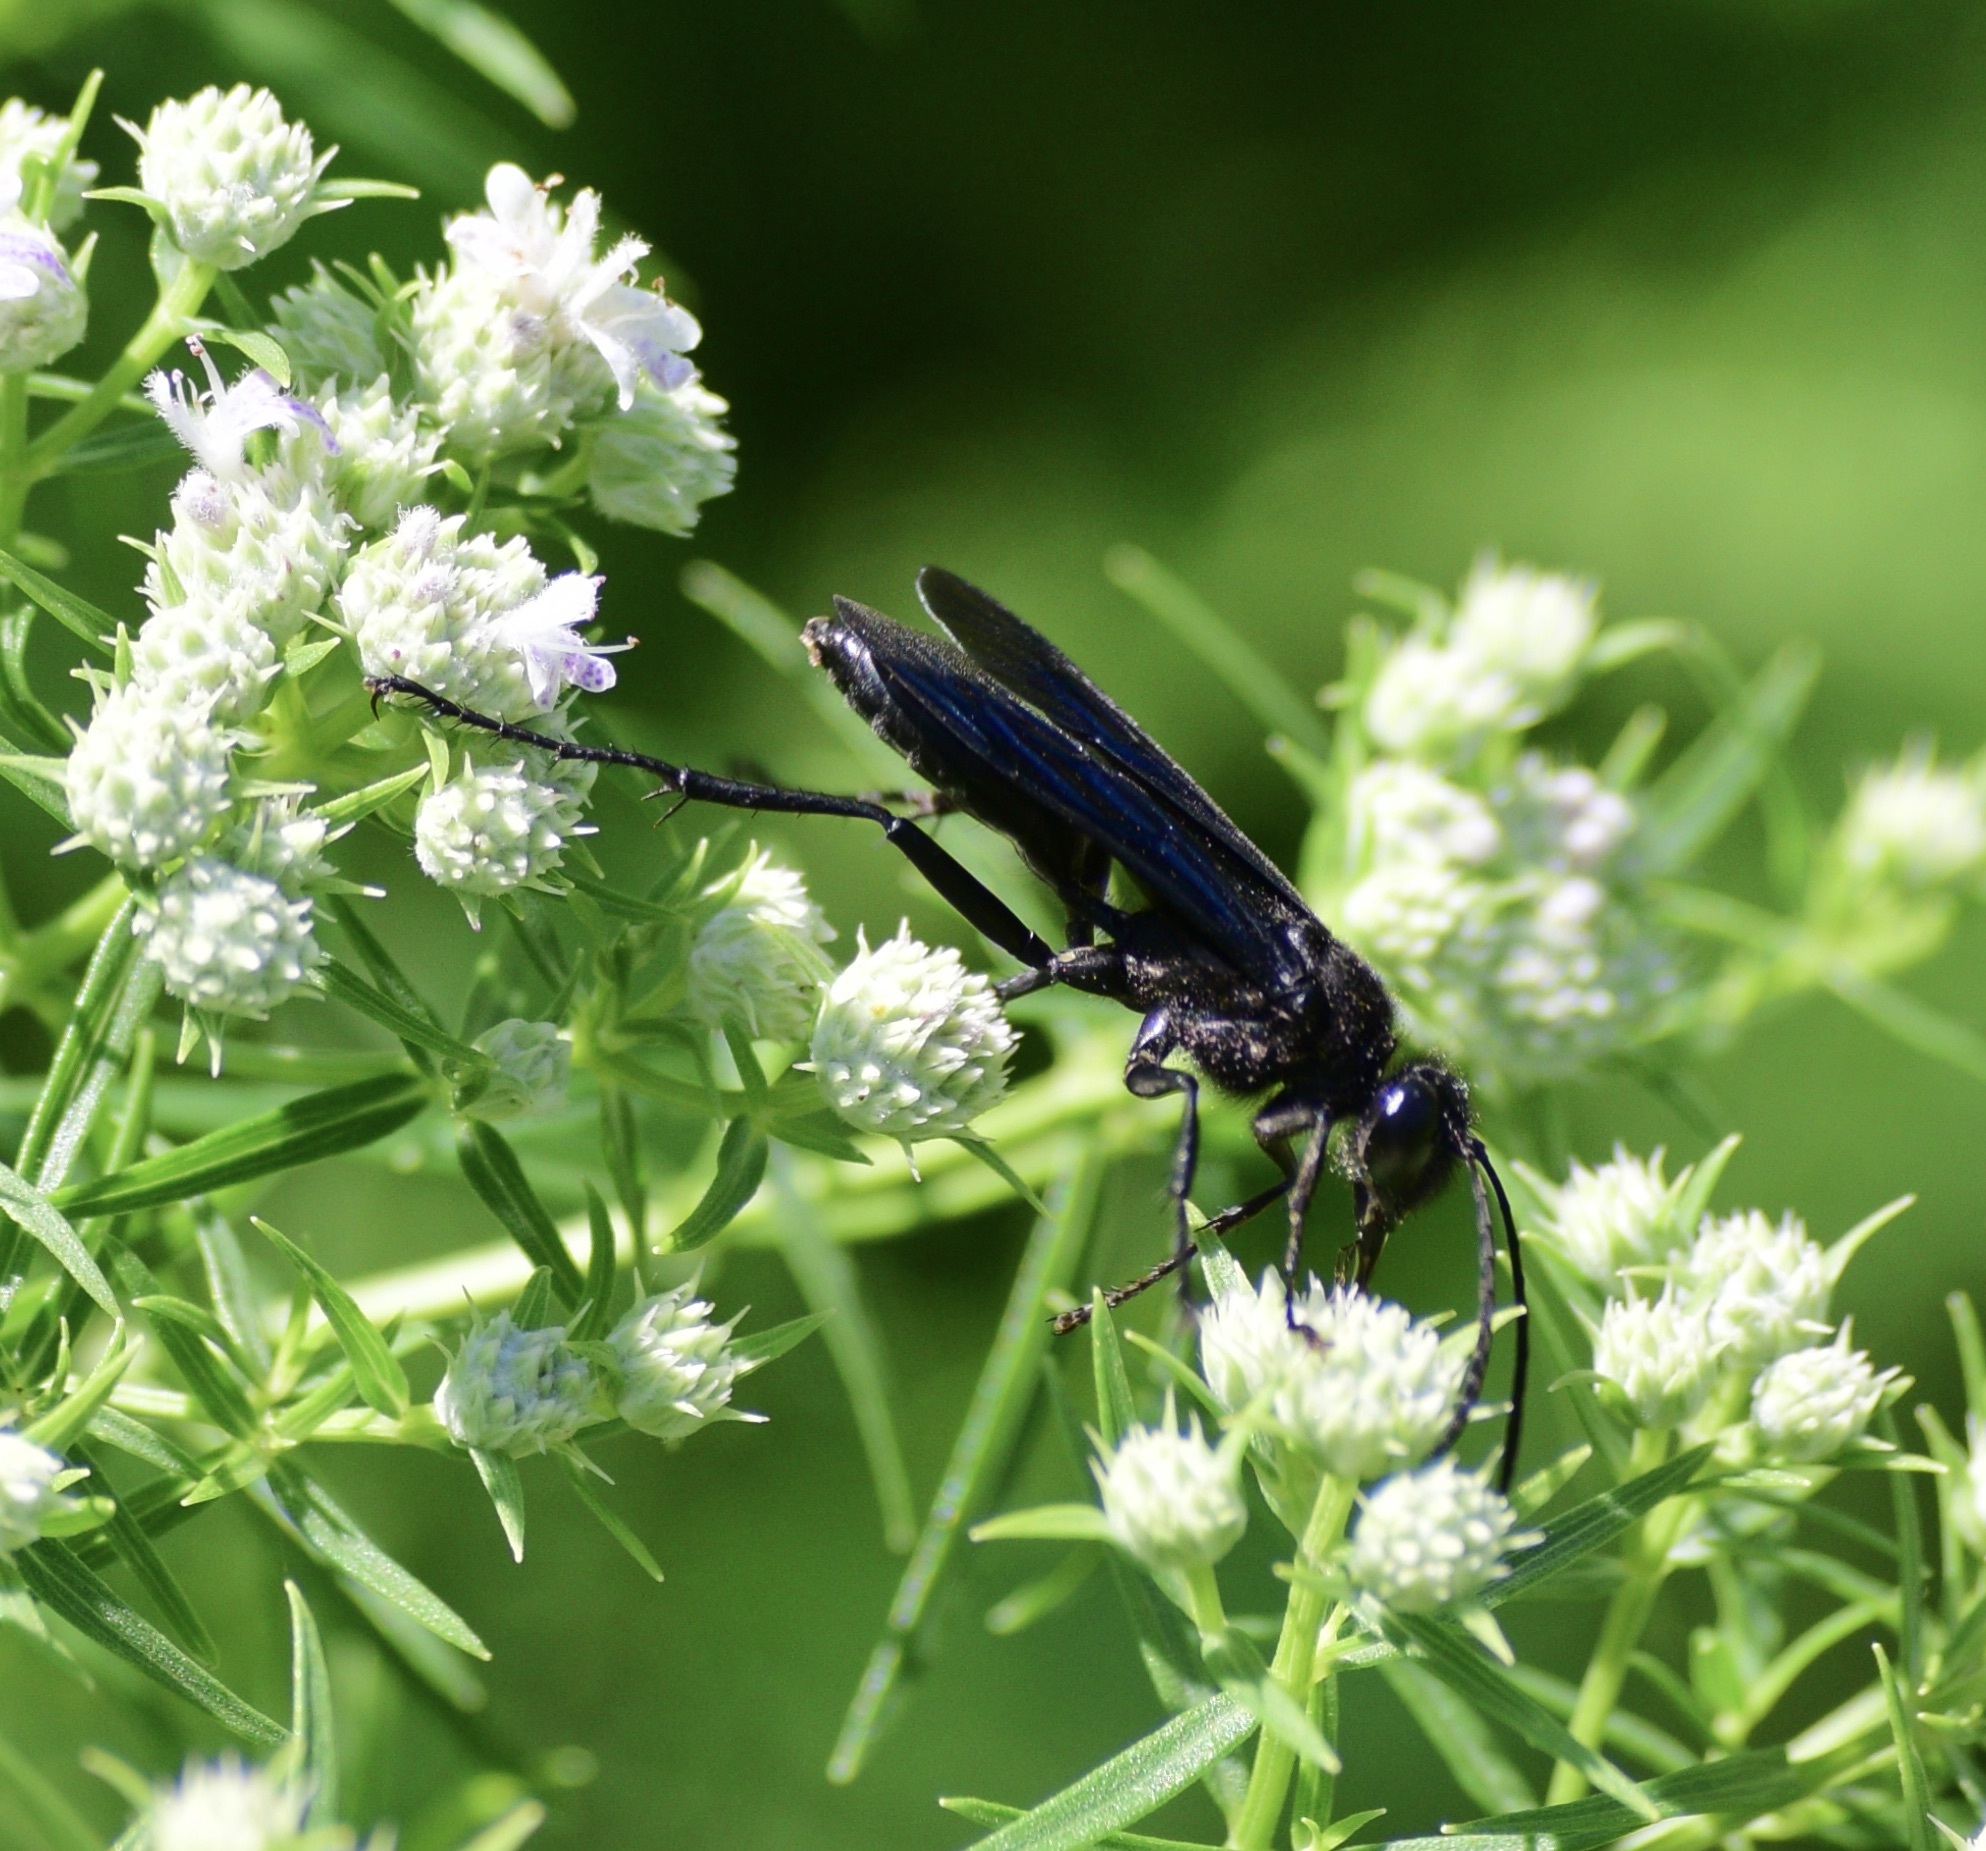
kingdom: Animalia
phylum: Arthropoda
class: Insecta
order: Hymenoptera
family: Sphecidae
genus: Sphex
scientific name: Sphex pensylvanicus
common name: Great black digger wasp
